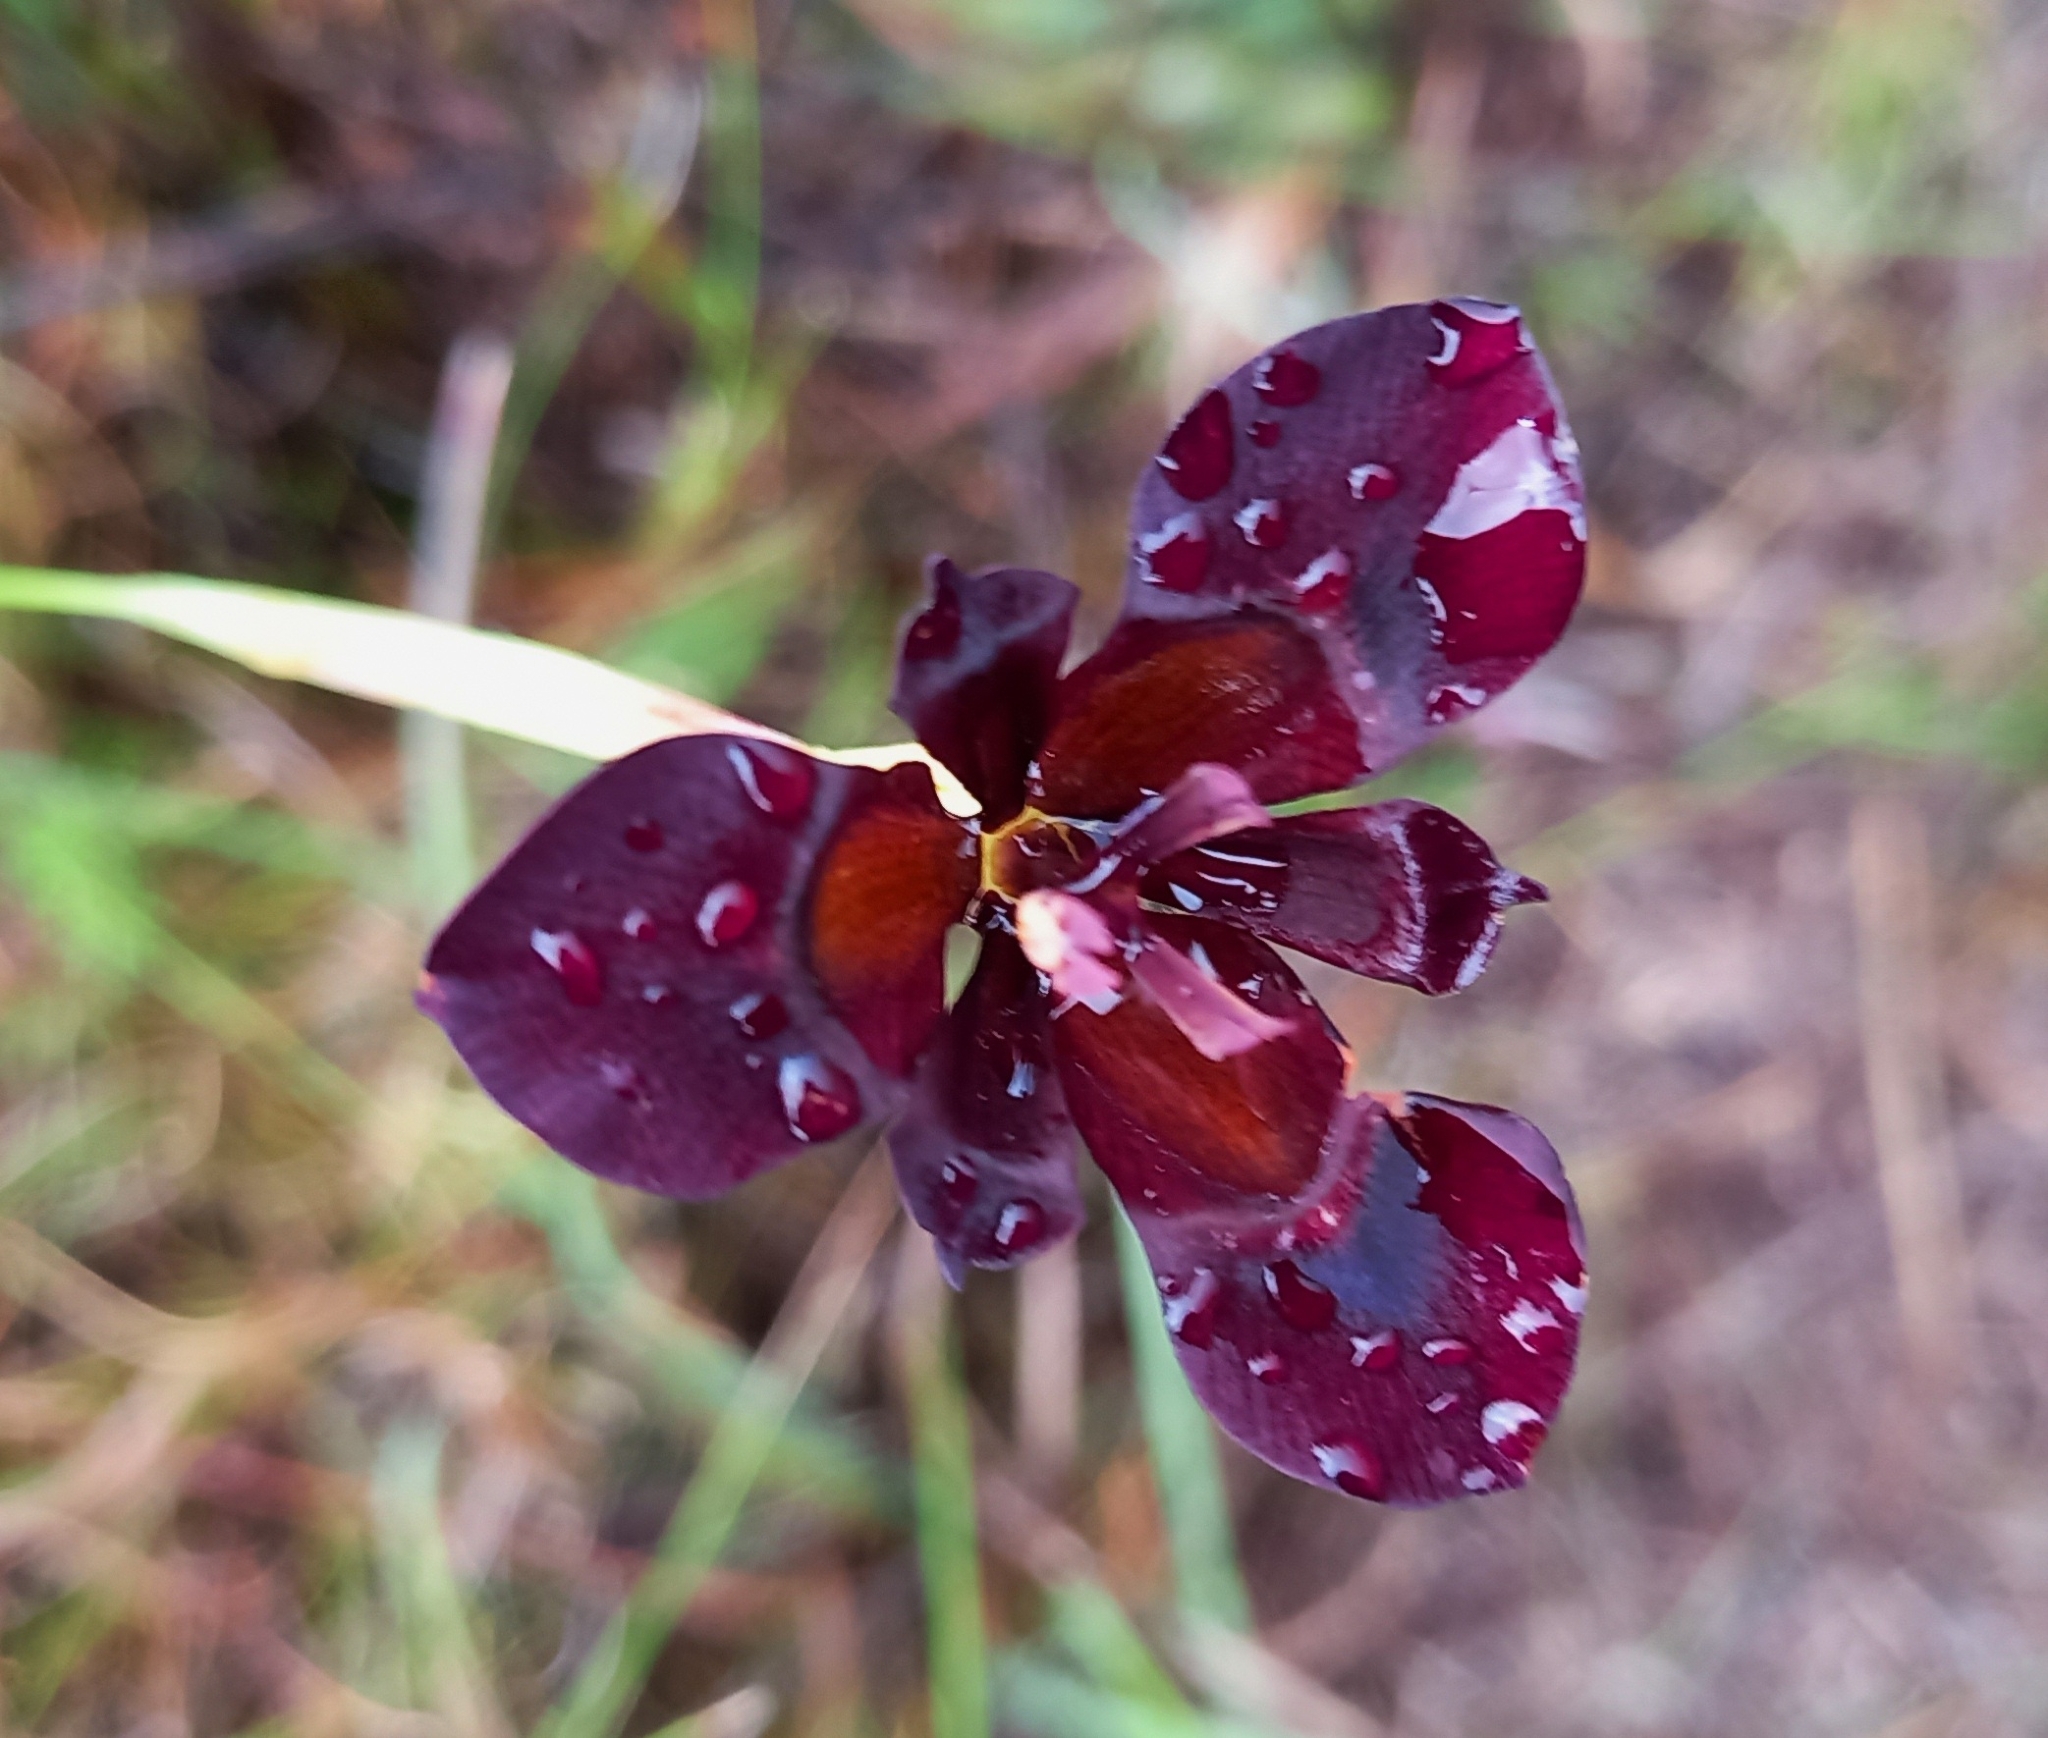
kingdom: Plantae
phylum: Tracheophyta
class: Liliopsida
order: Asparagales
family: Iridaceae
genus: Moraea
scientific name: Moraea lurida
